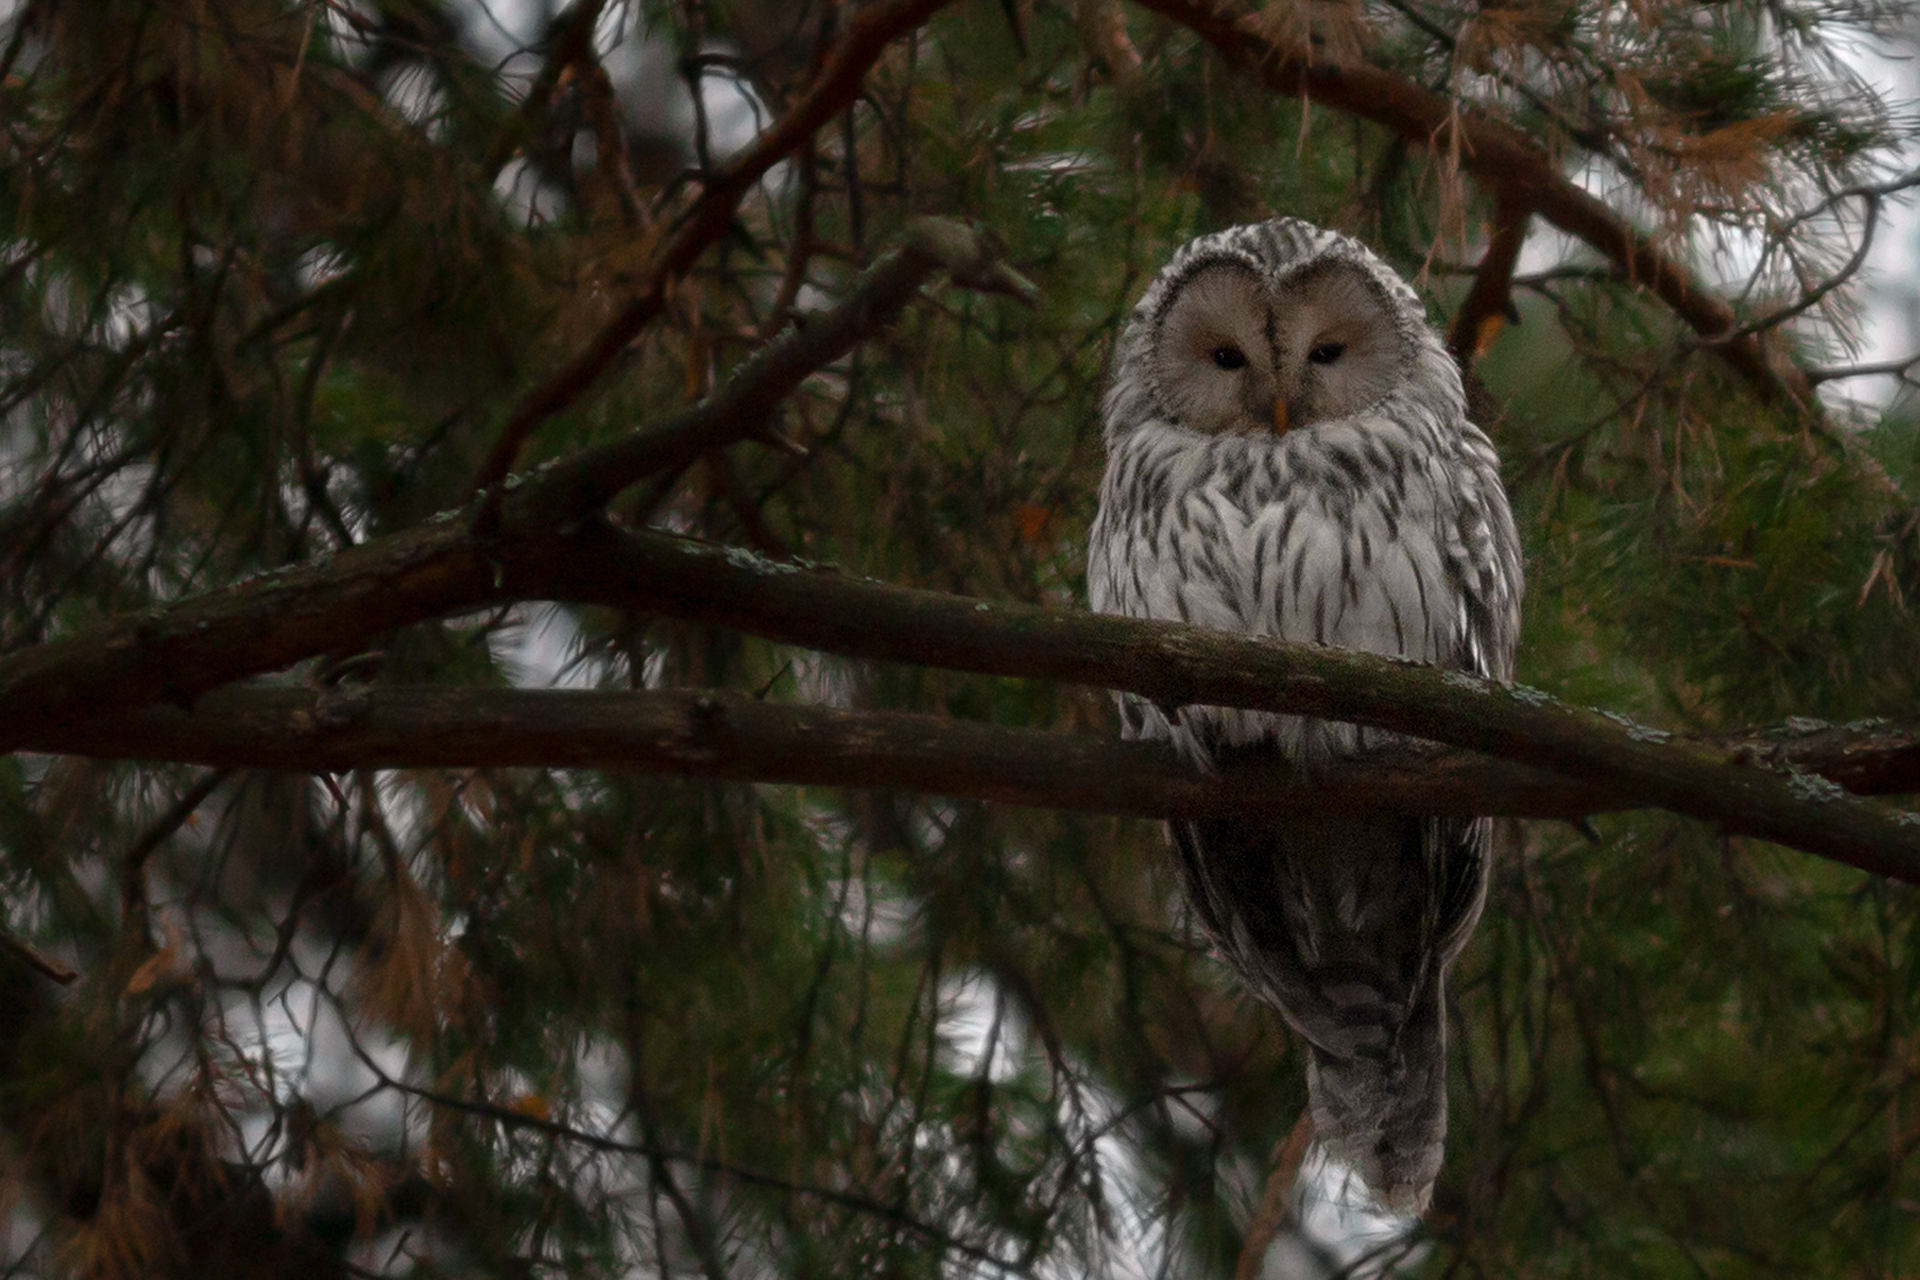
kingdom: Animalia
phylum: Chordata
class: Aves
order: Strigiformes
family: Strigidae
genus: Strix
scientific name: Strix uralensis
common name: Ural owl
